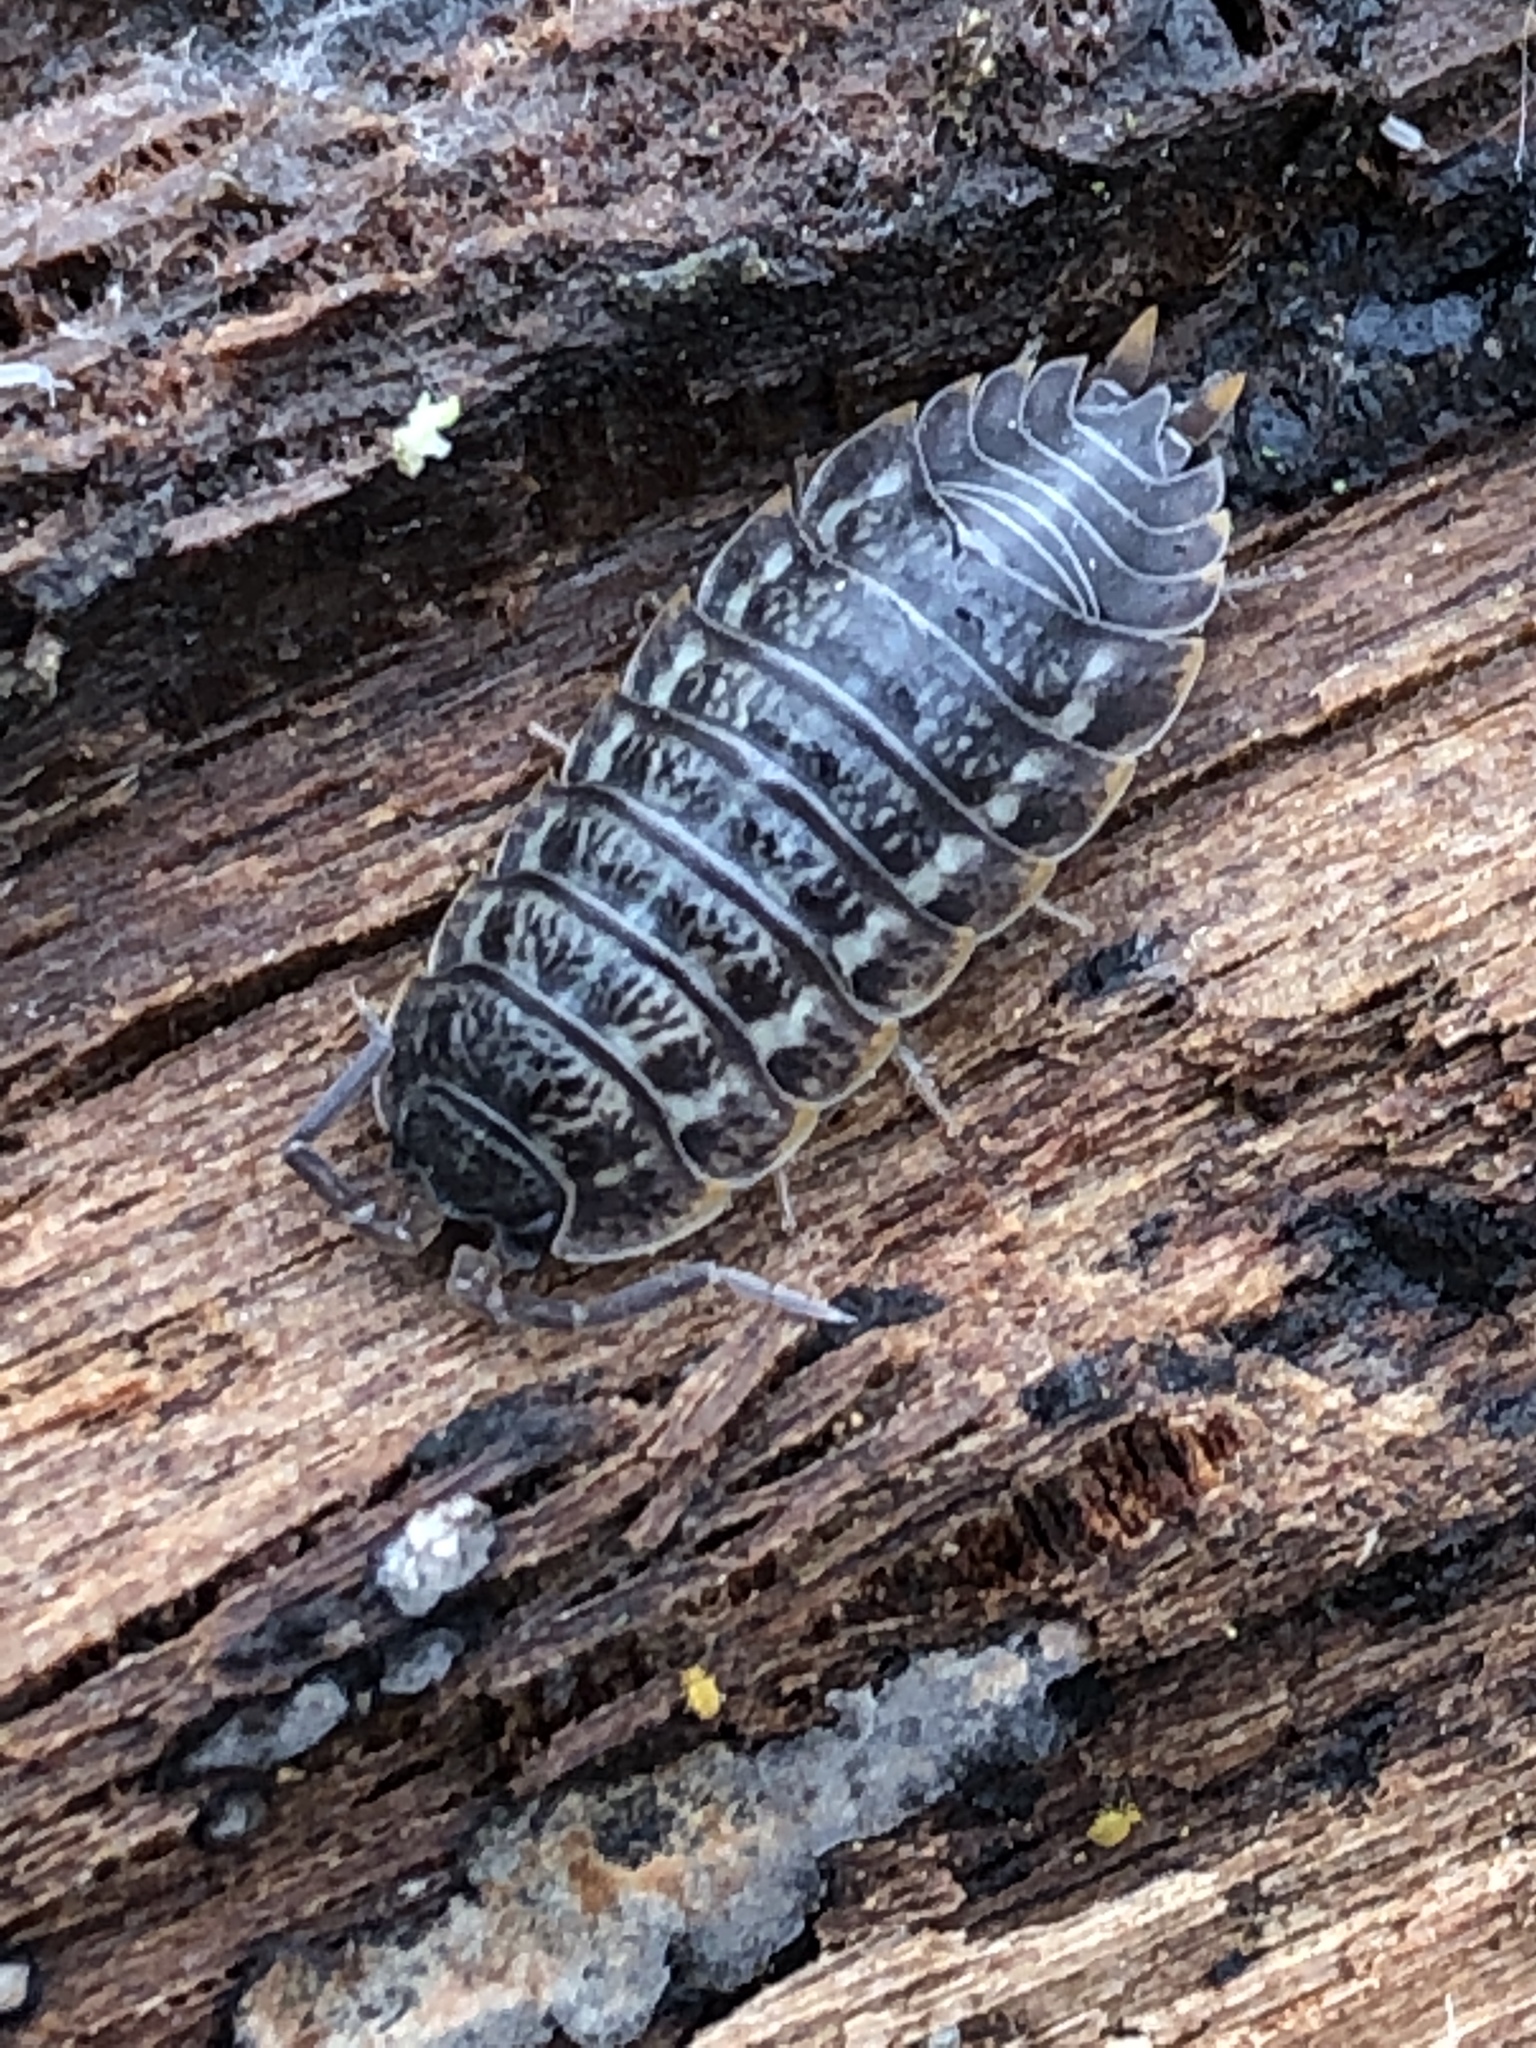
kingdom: Animalia
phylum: Arthropoda
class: Malacostraca
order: Isopoda
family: Trachelipodidae
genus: Trachelipus
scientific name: Trachelipus rathkii
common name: Isopod
